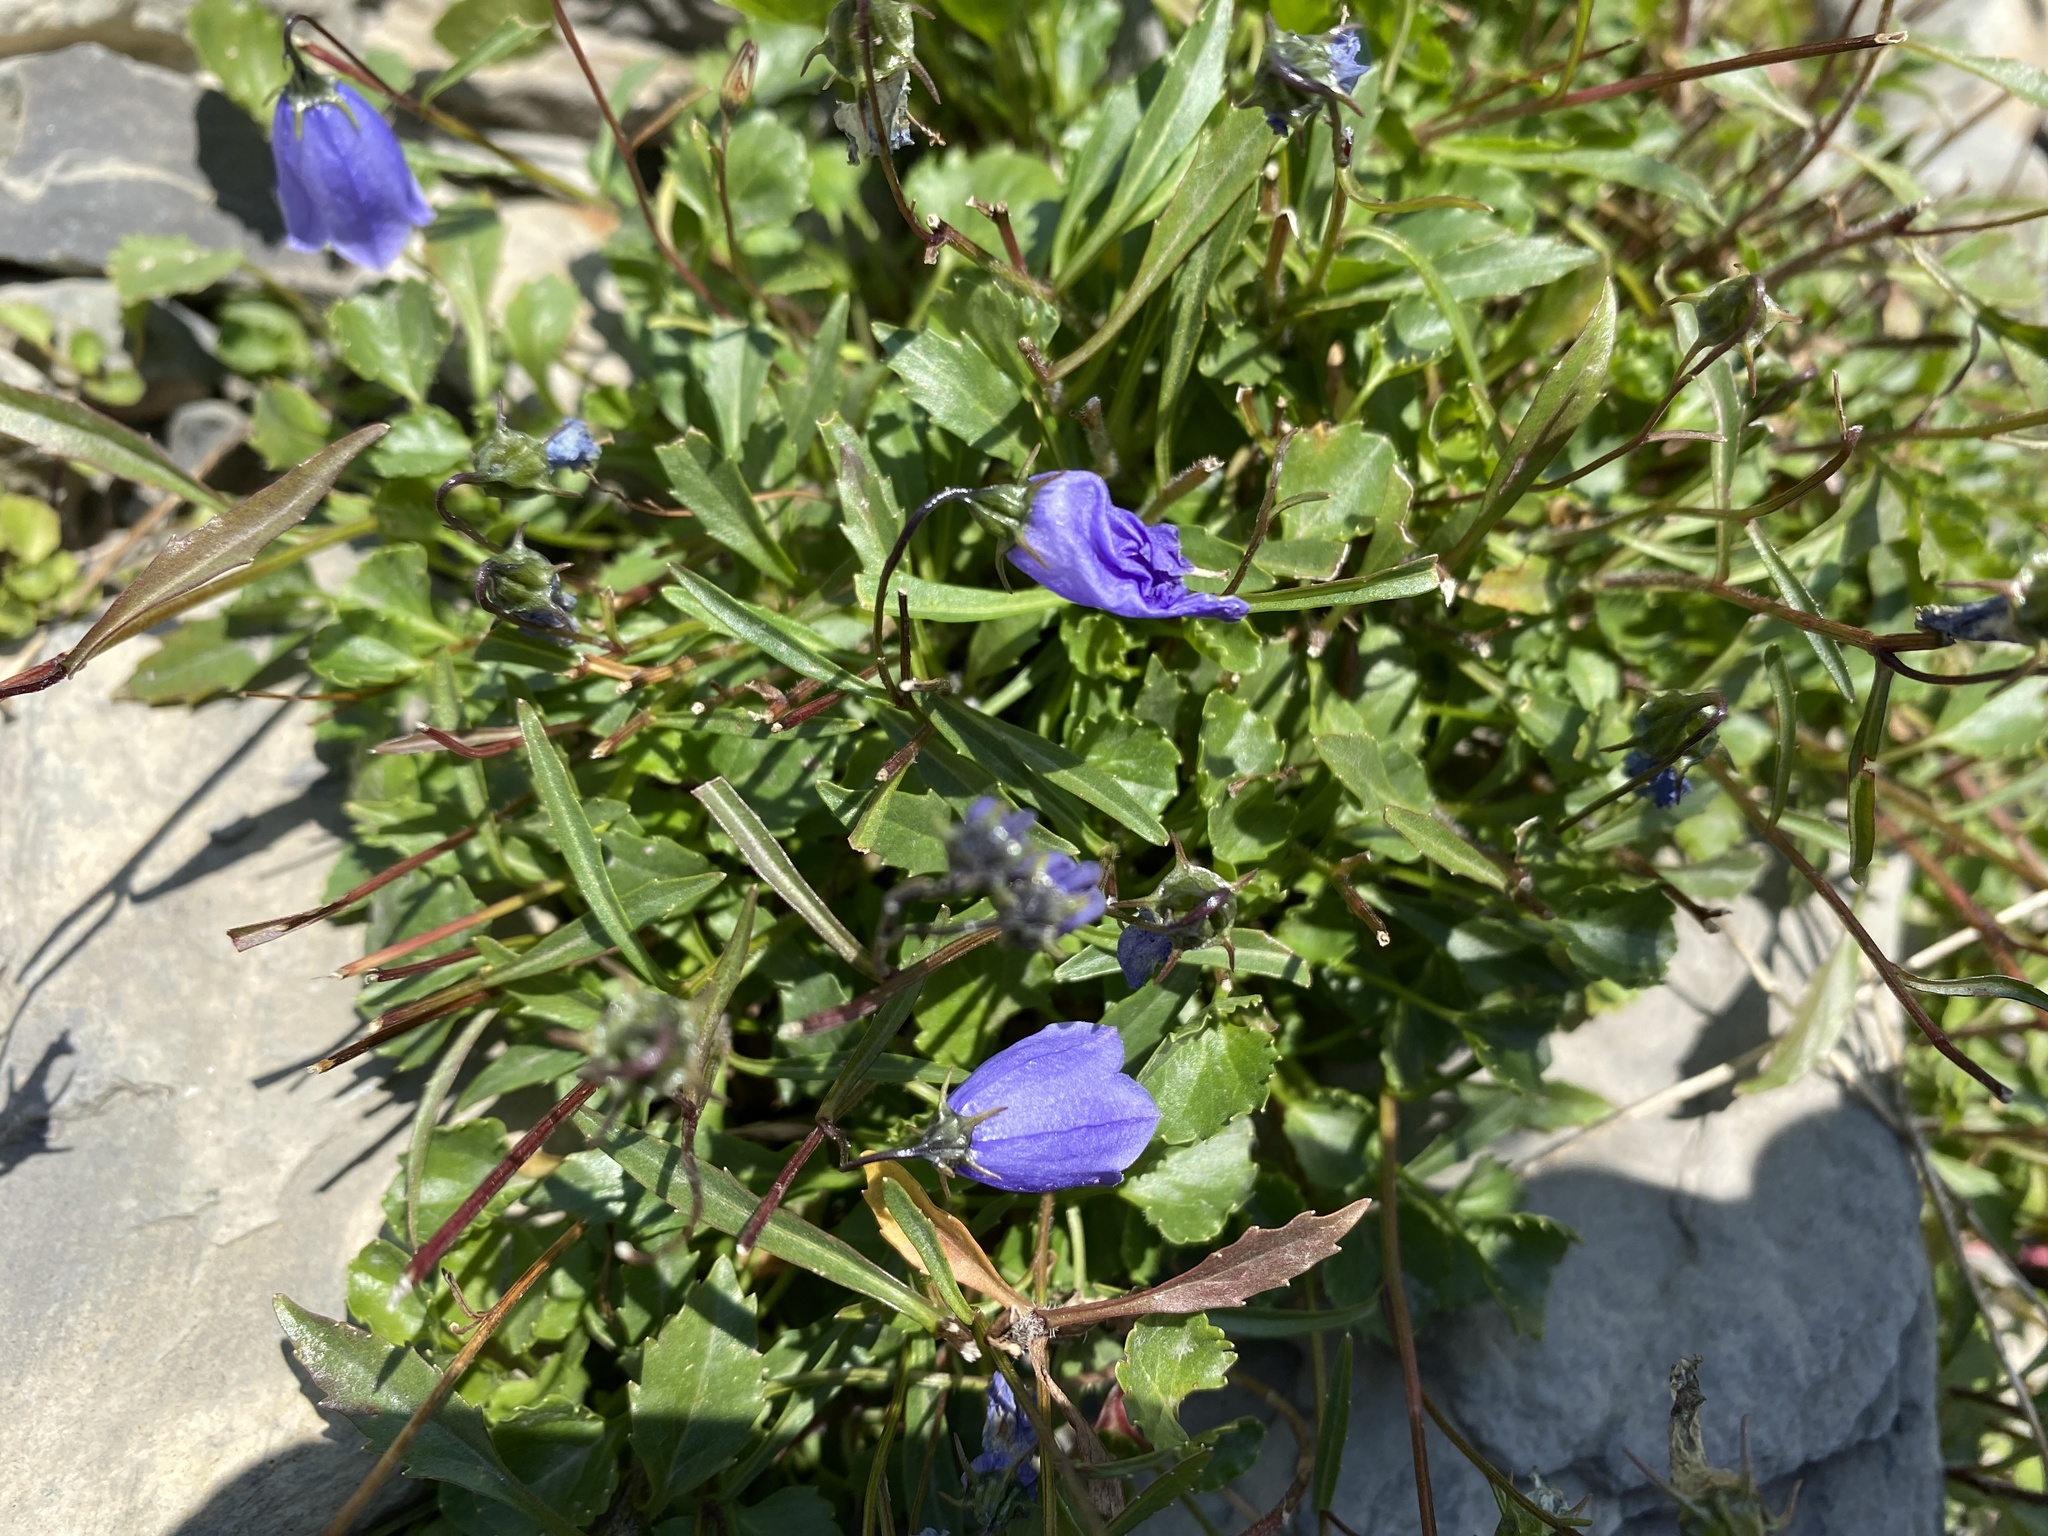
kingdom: Plantae
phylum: Tracheophyta
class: Magnoliopsida
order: Asterales
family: Campanulaceae
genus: Campanula
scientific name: Campanula cochleariifolia
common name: Fairies'-thimbles
